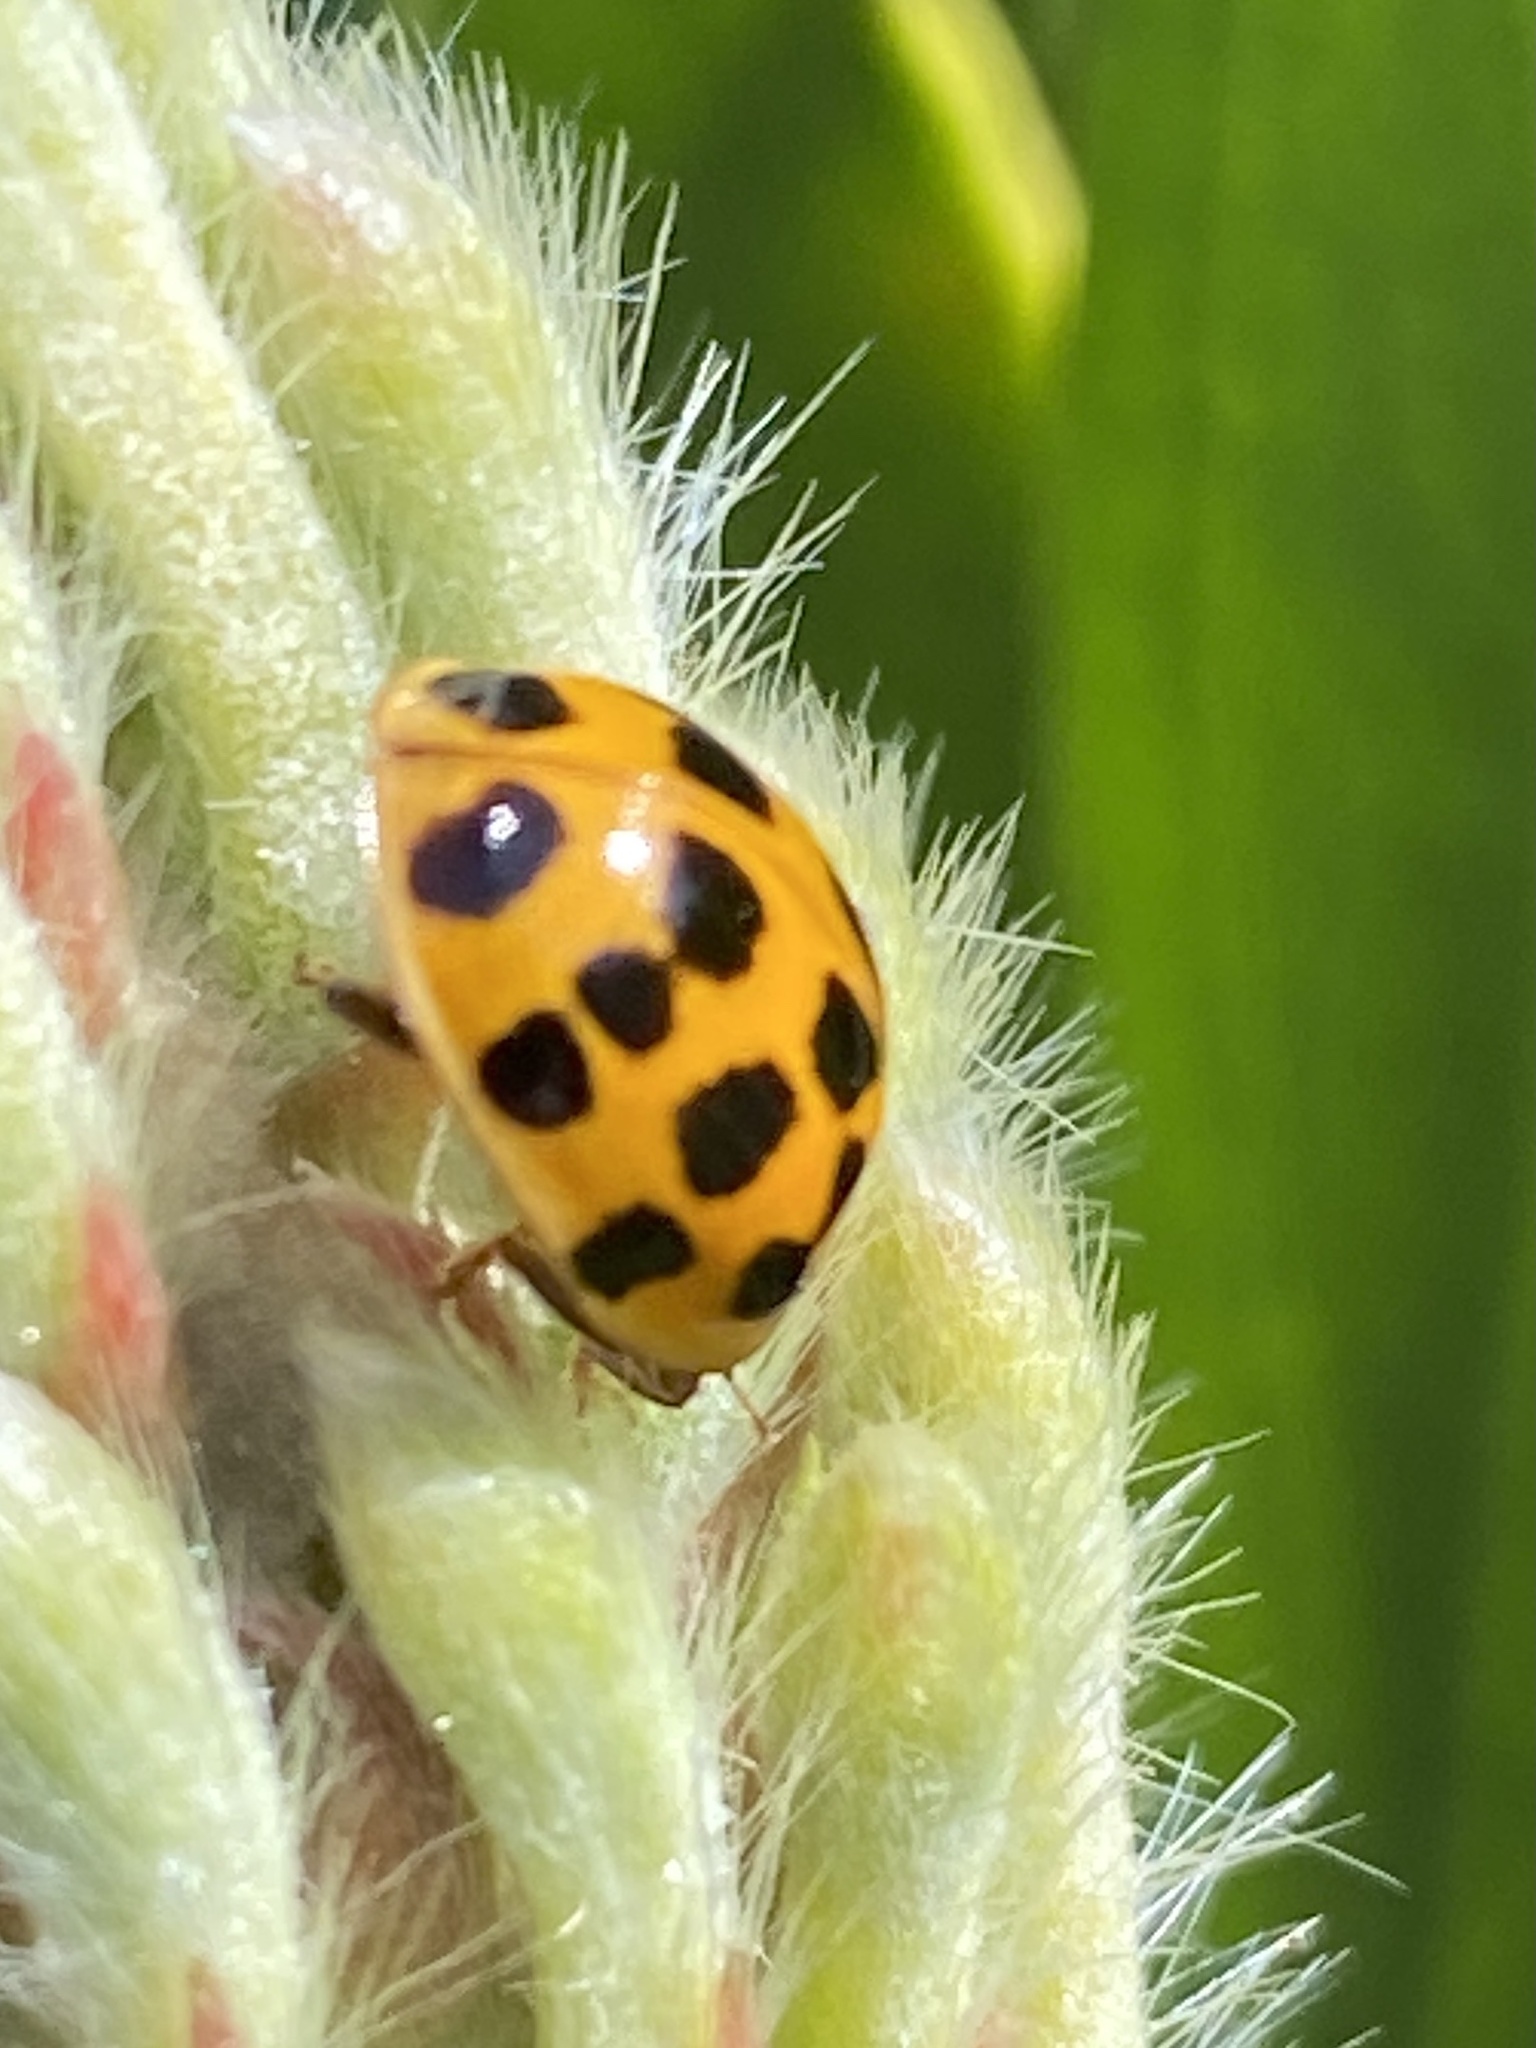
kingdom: Animalia
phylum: Arthropoda
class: Insecta
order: Coleoptera
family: Coccinellidae
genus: Harmonia
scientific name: Harmonia axyridis
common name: Harlequin ladybird
